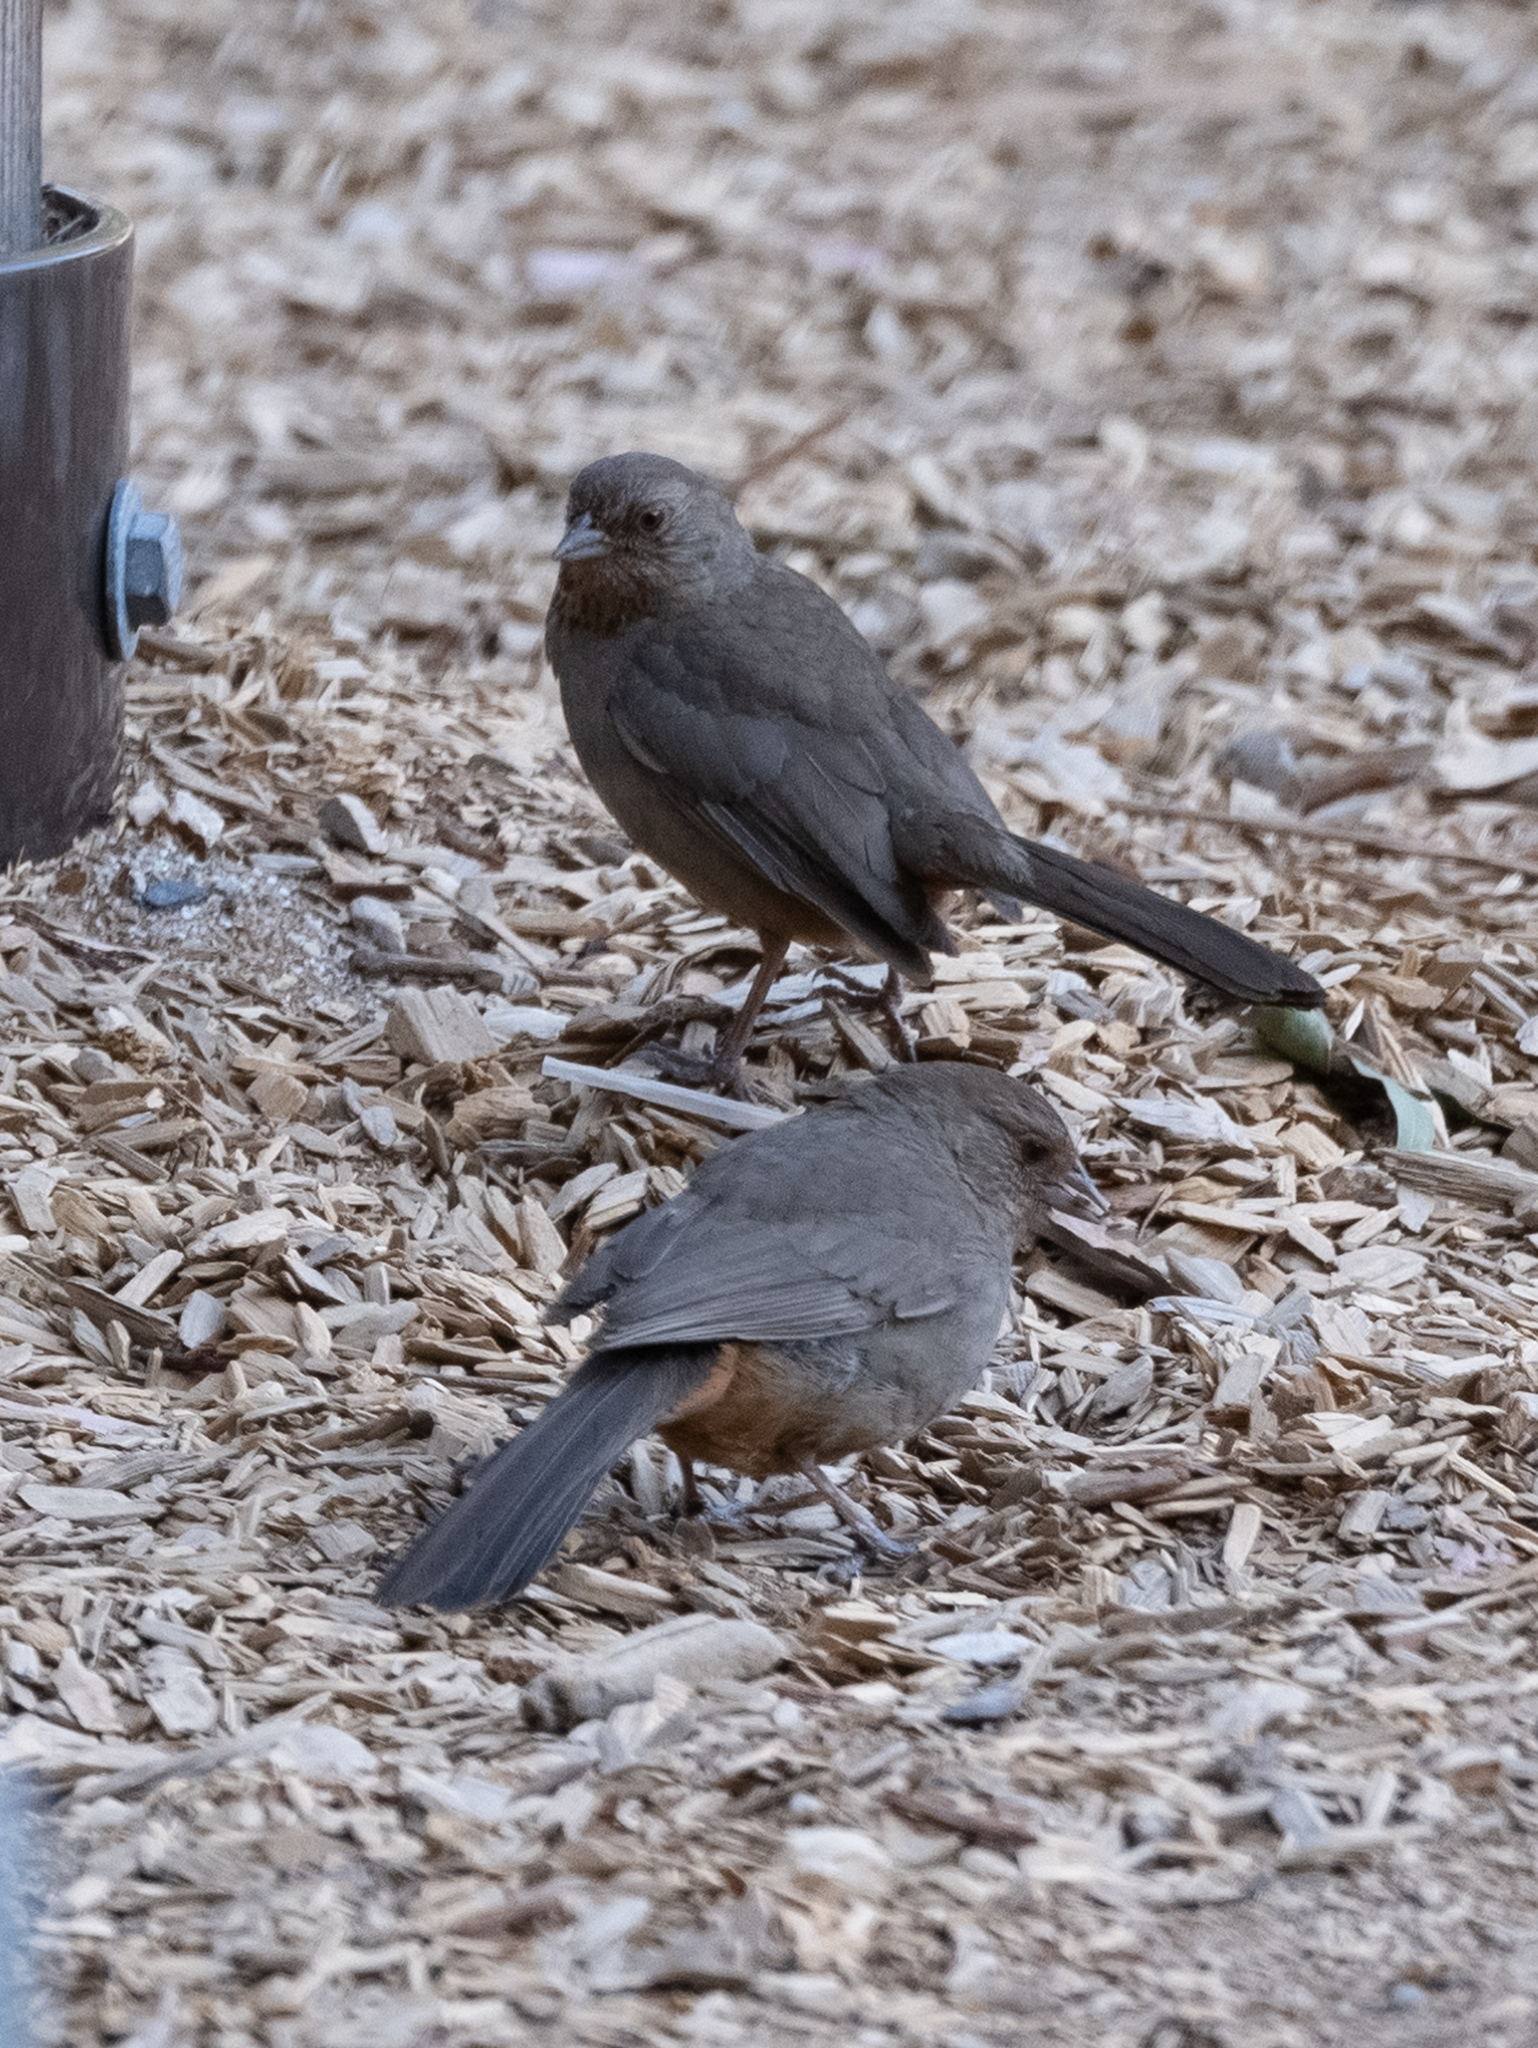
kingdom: Animalia
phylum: Chordata
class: Aves
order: Passeriformes
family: Passerellidae
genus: Melozone
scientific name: Melozone crissalis
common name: California towhee
